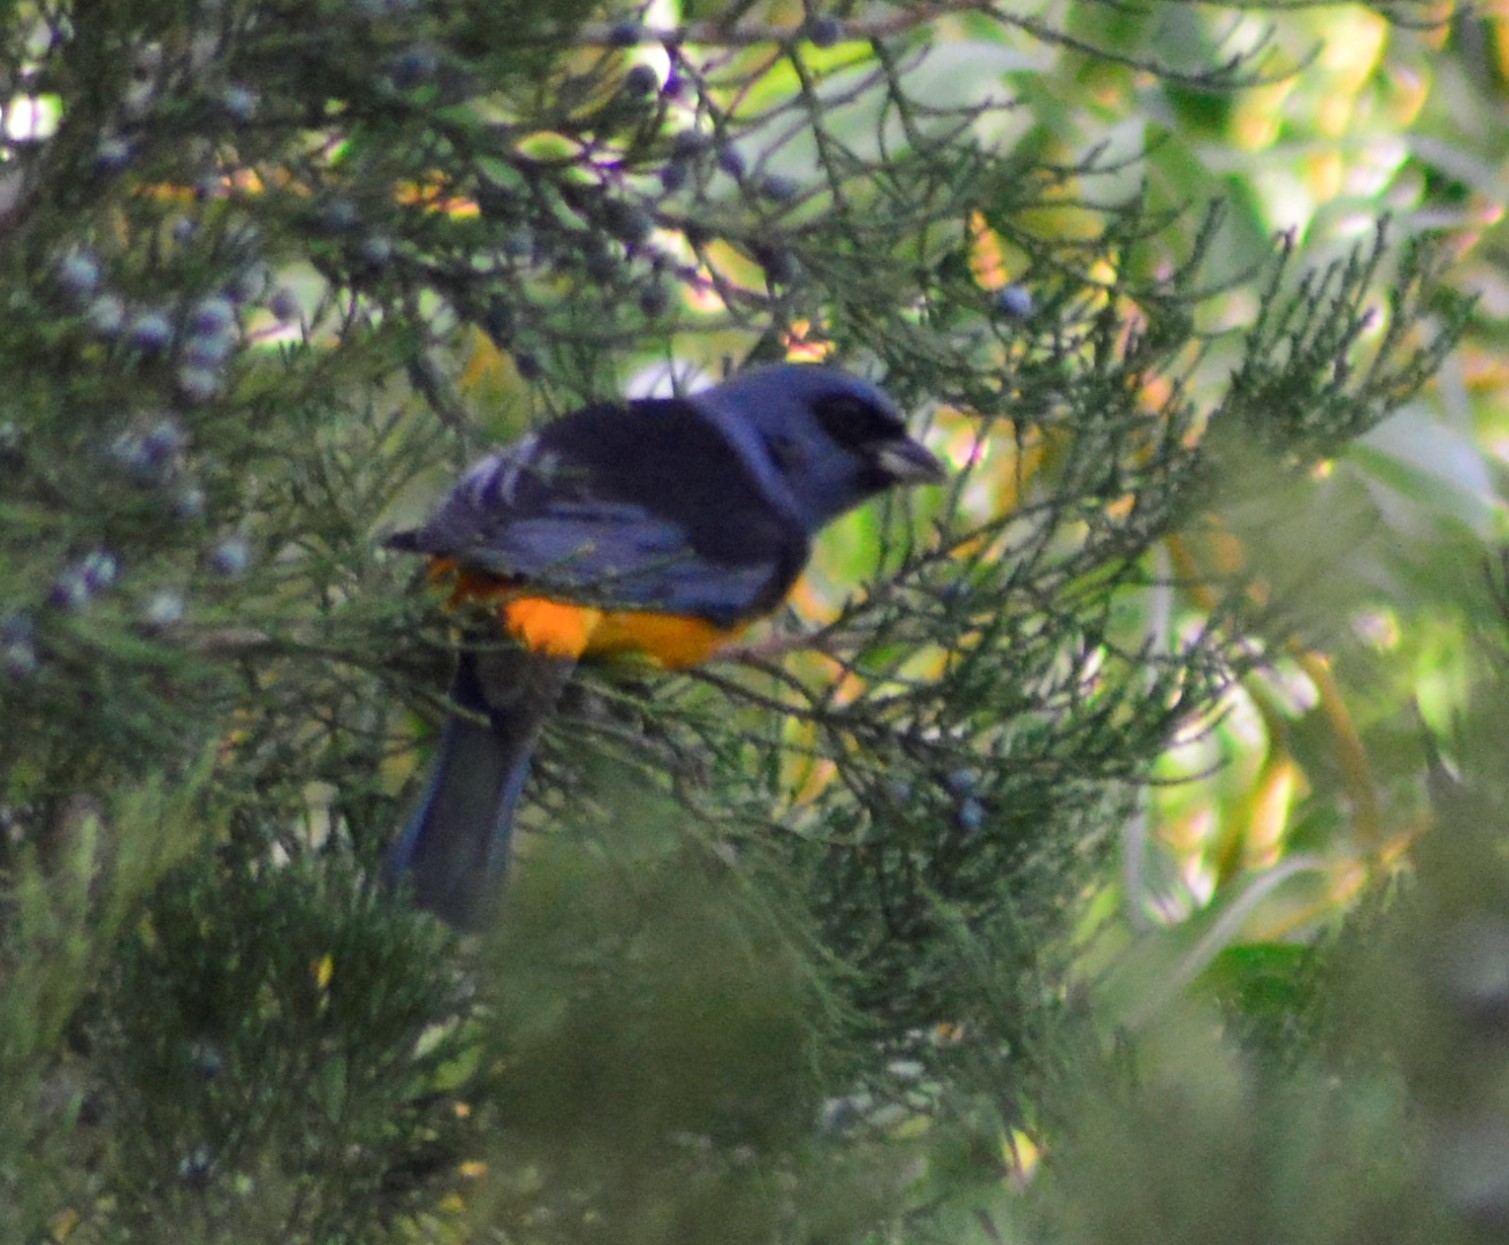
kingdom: Animalia
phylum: Chordata
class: Aves
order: Passeriformes
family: Thraupidae
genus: Rauenia
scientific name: Rauenia bonariensis
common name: Blue-and-yellow tanager
